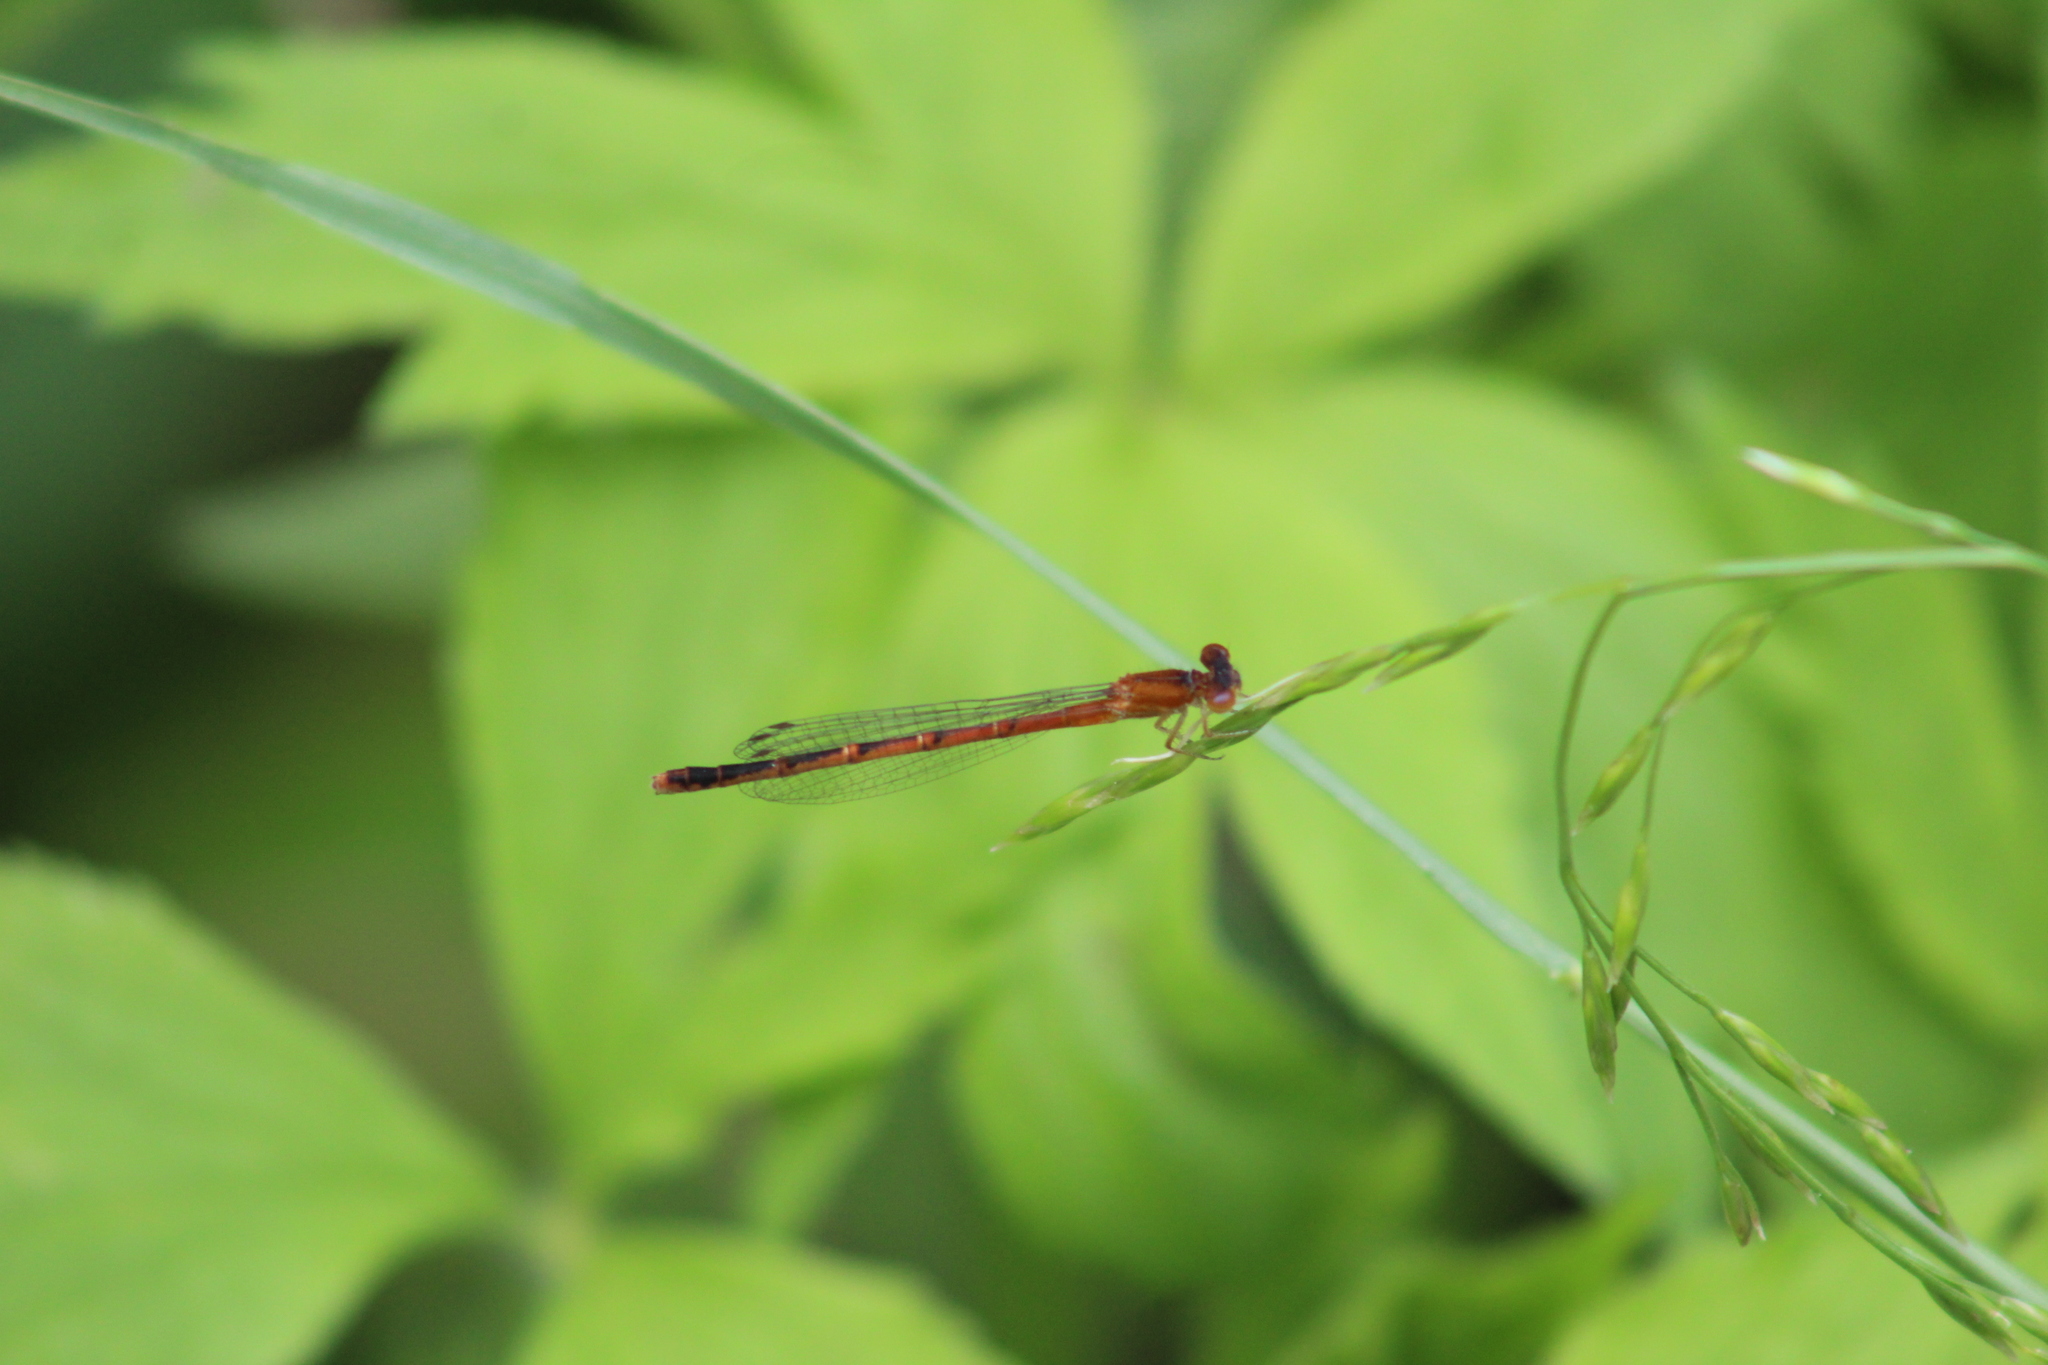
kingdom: Animalia
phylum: Arthropoda
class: Insecta
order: Odonata
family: Coenagrionidae
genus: Amphiagrion
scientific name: Amphiagrion saucium
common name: Eastern red damsel
